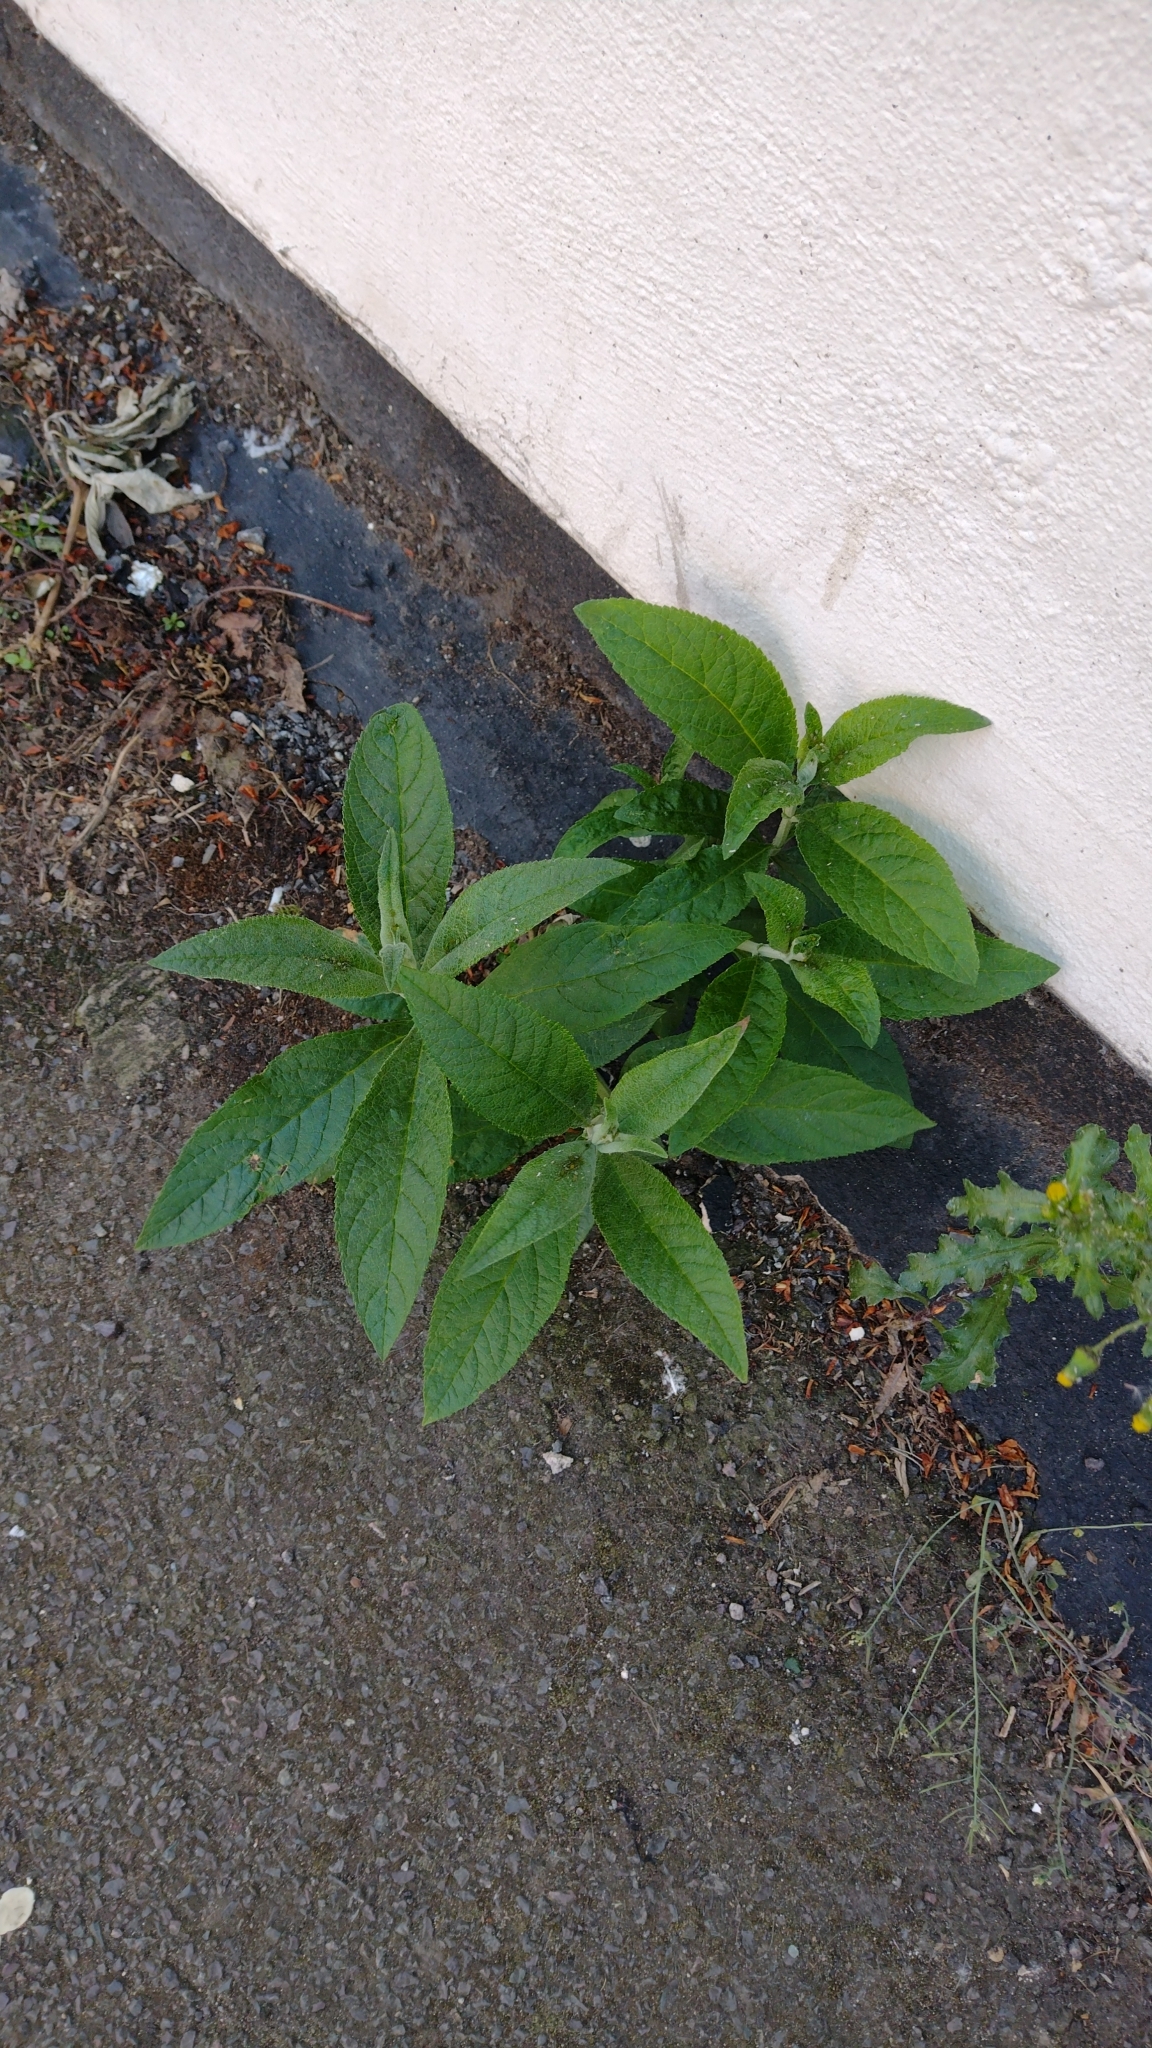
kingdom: Plantae
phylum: Tracheophyta
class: Magnoliopsida
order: Lamiales
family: Scrophulariaceae
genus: Buddleja
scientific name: Buddleja davidii
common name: Butterfly-bush
